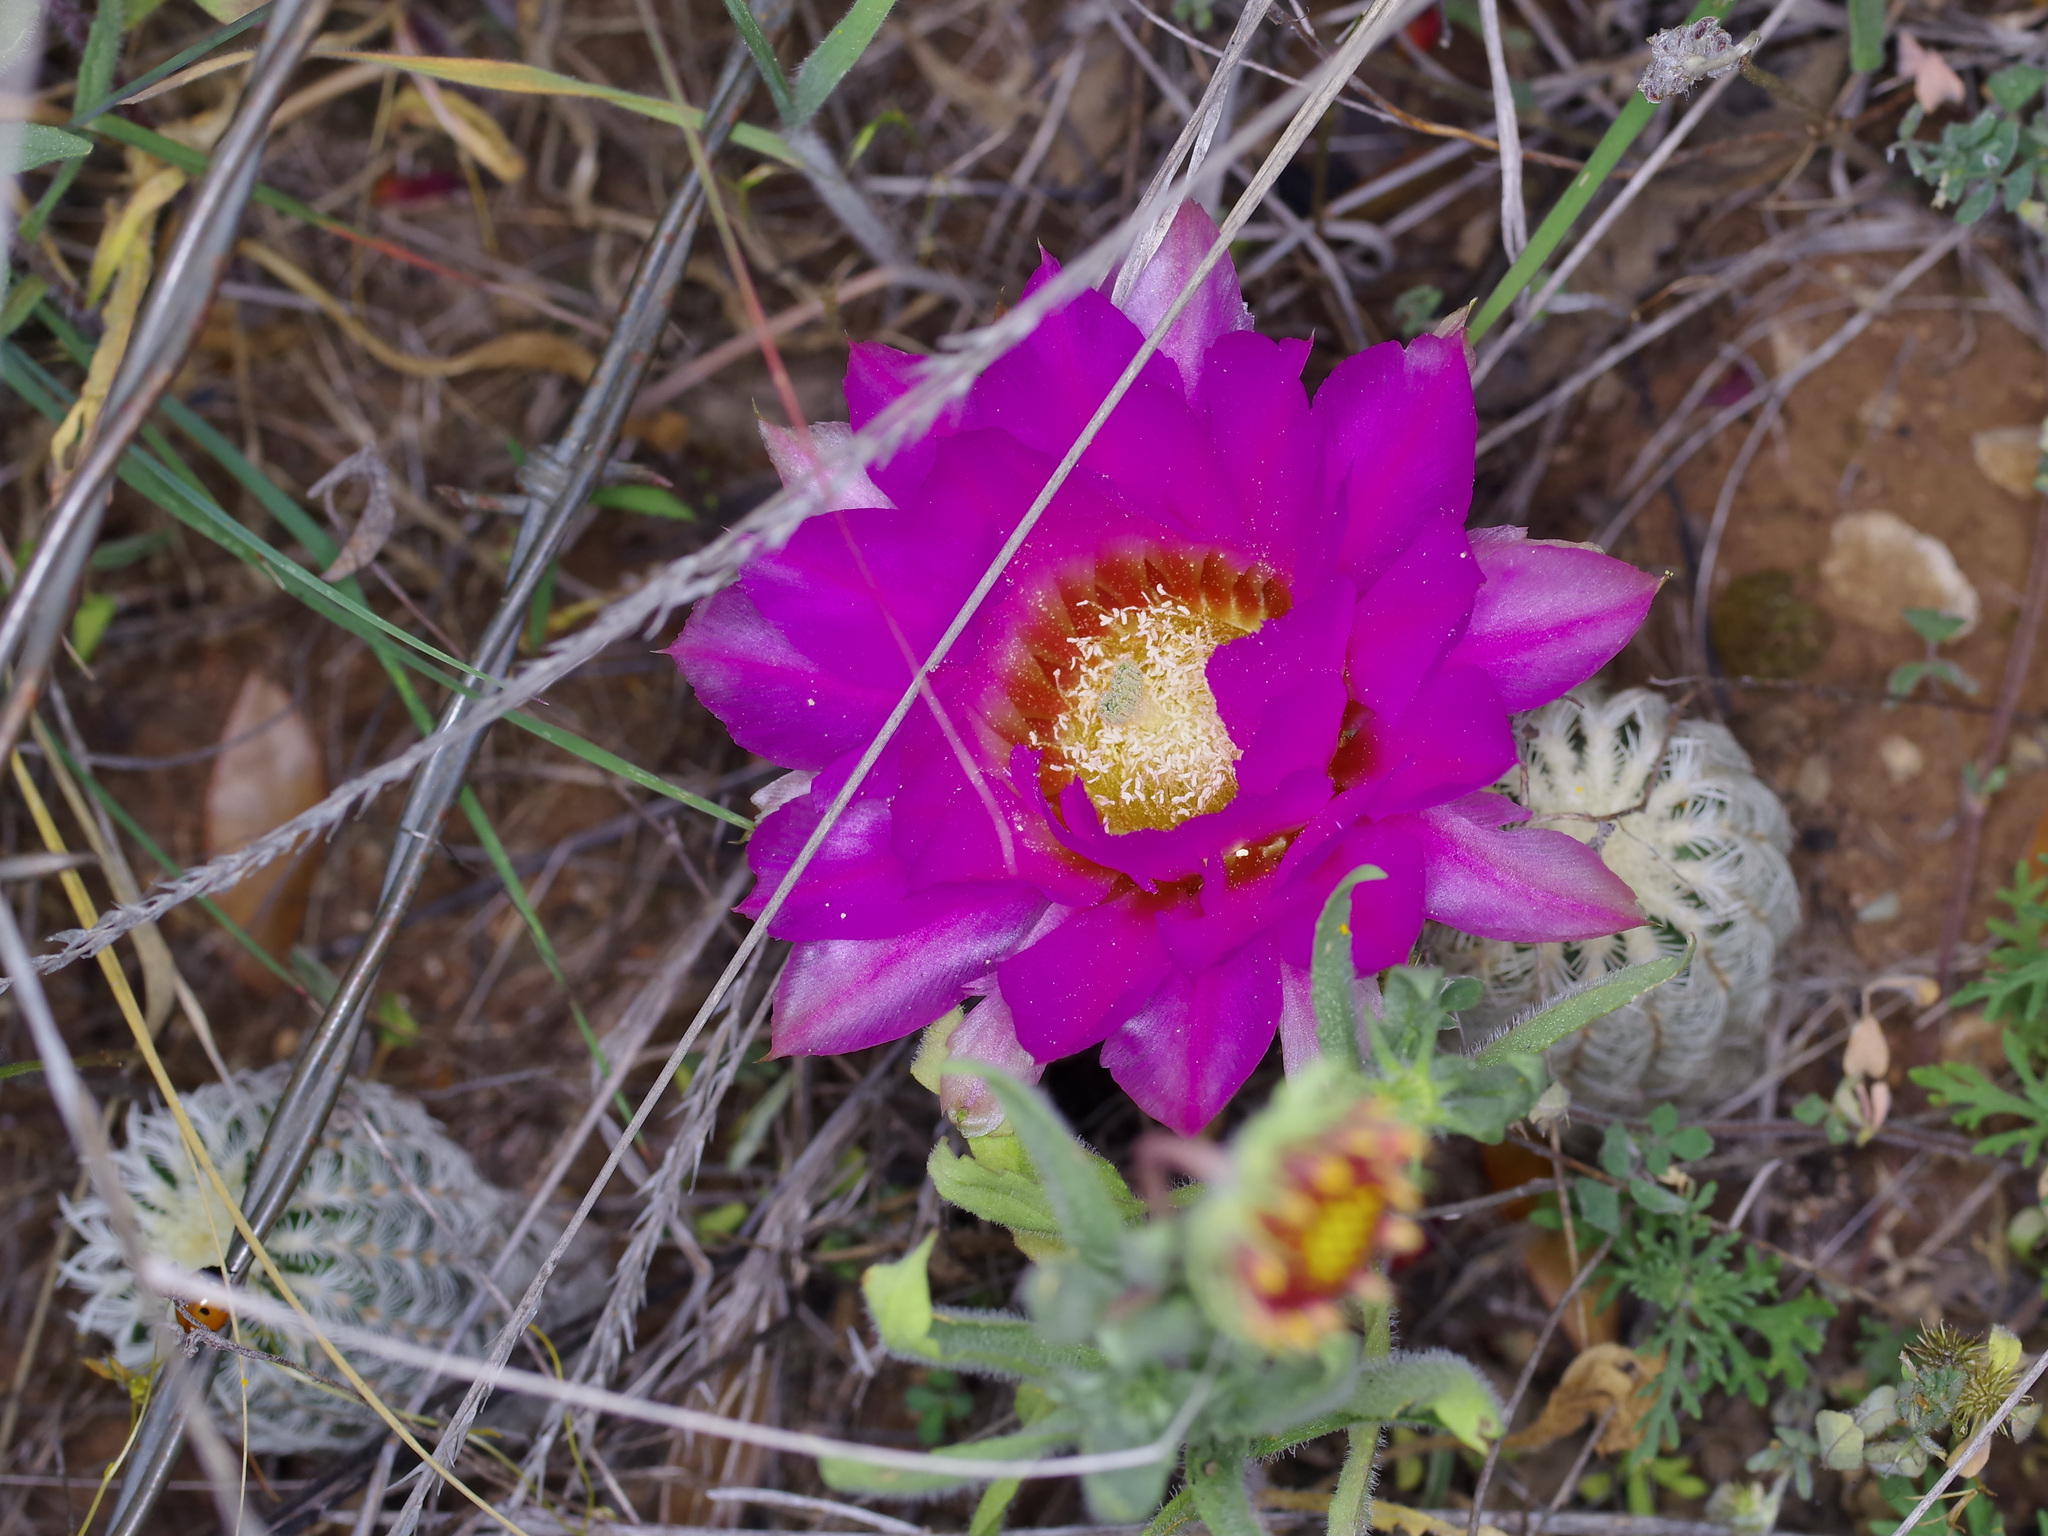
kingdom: Plantae
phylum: Tracheophyta
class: Magnoliopsida
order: Caryophyllales
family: Cactaceae
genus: Echinocereus
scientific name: Echinocereus reichenbachii
